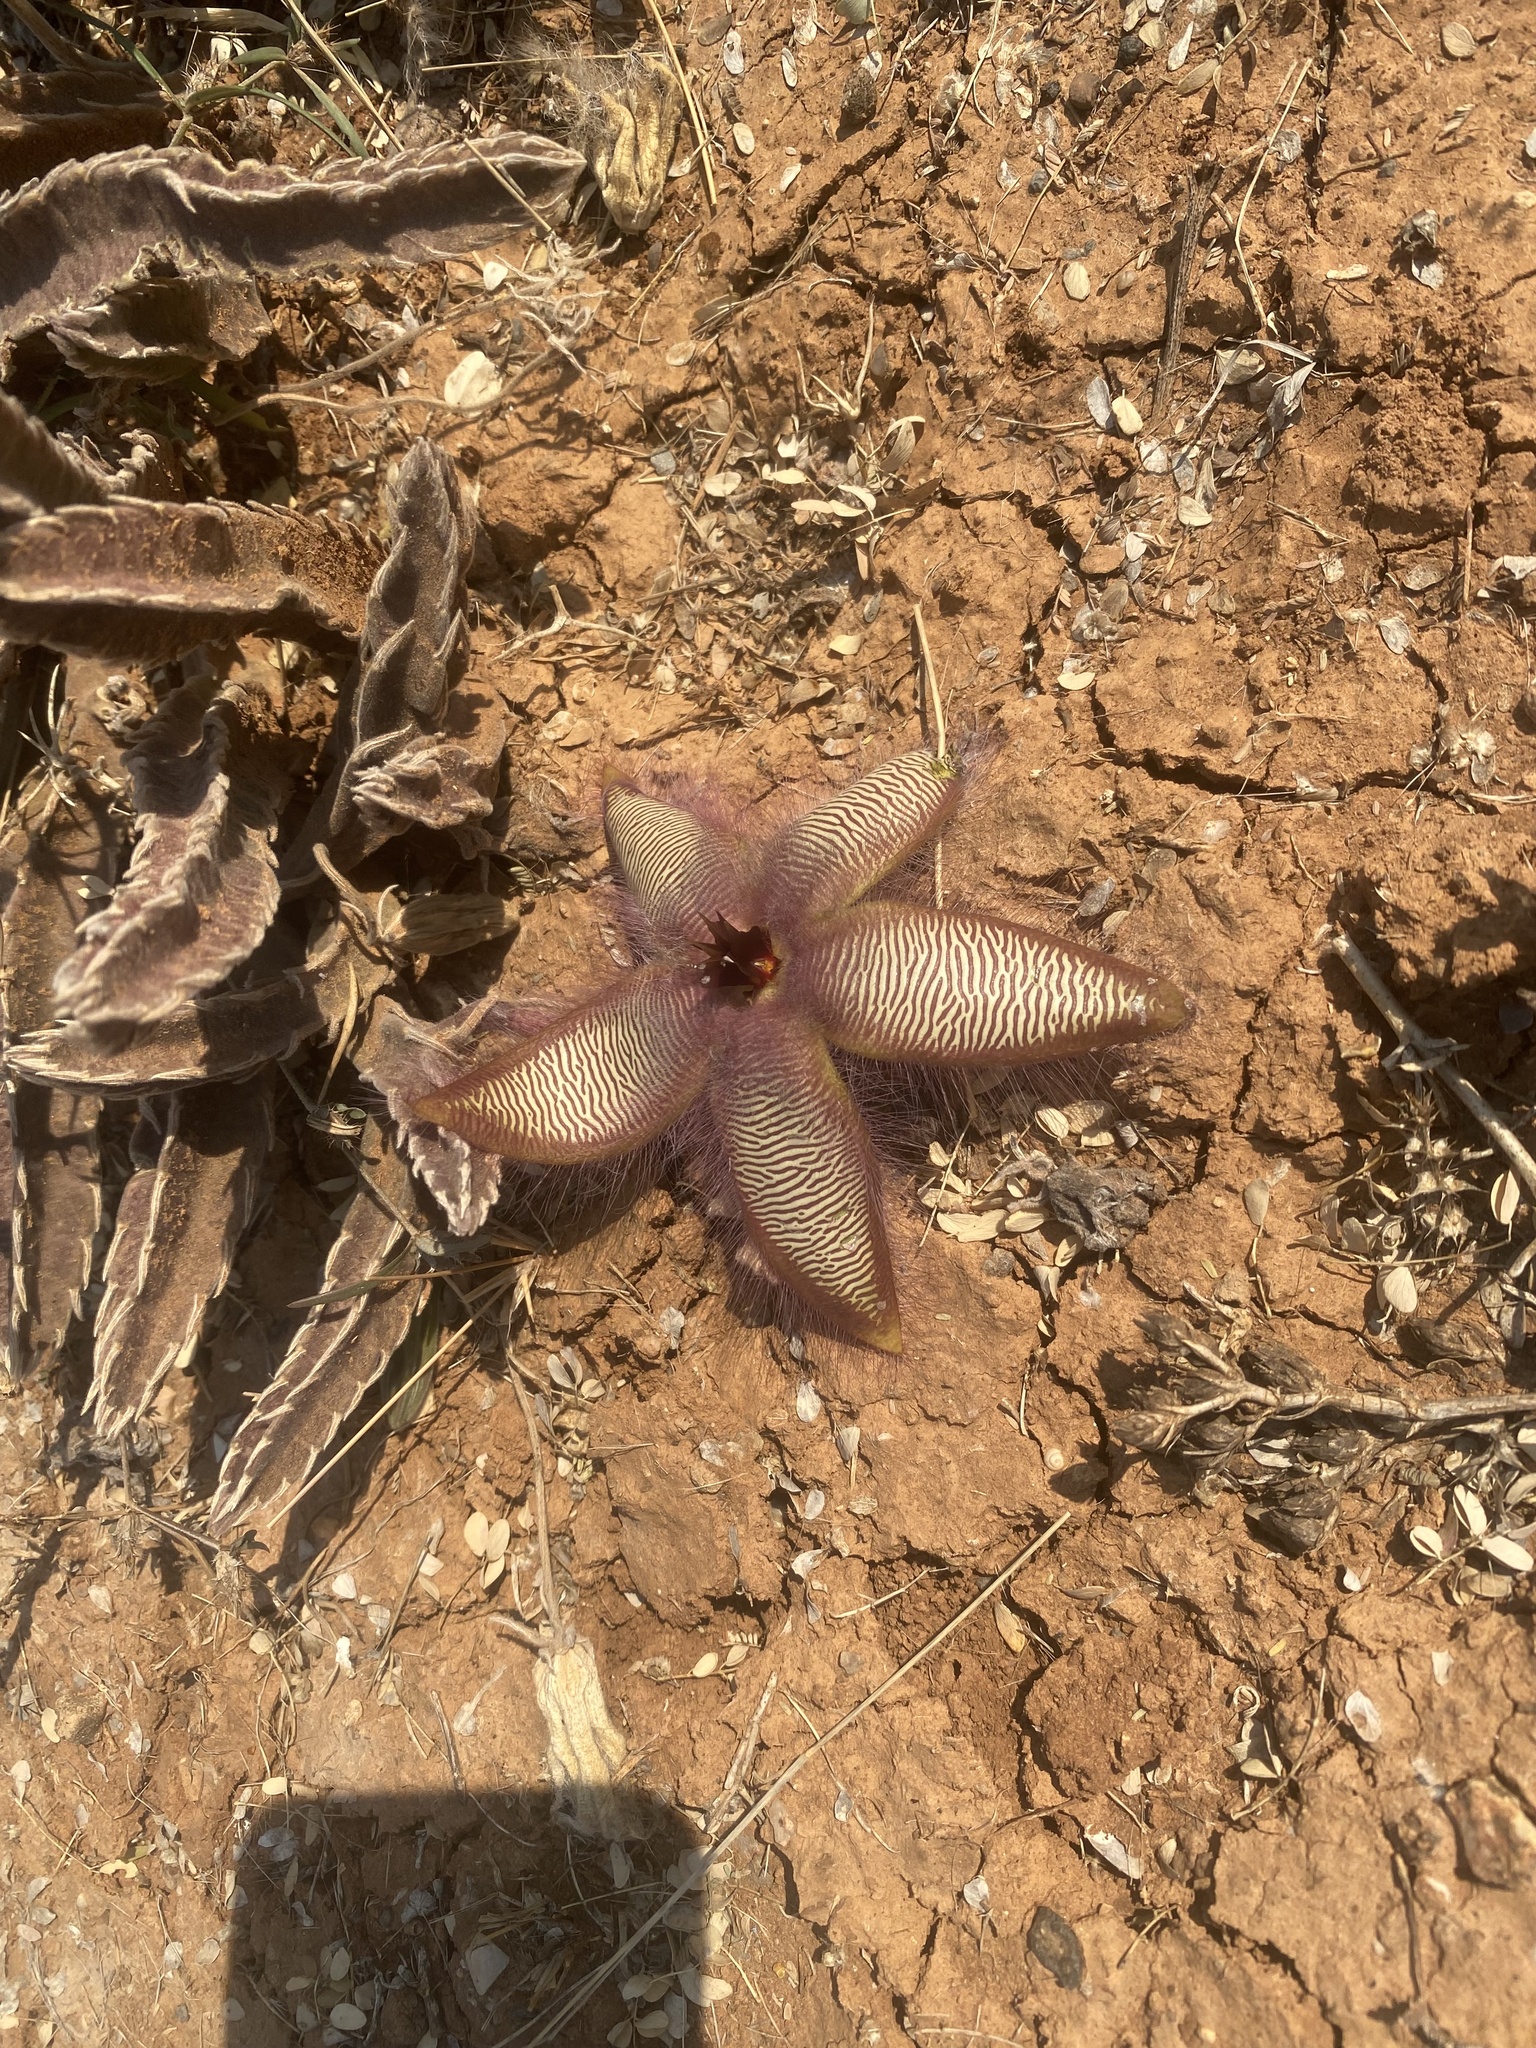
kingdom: Plantae
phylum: Tracheophyta
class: Magnoliopsida
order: Gentianales
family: Apocynaceae
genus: Stapelia
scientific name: Stapelia gettliffei
